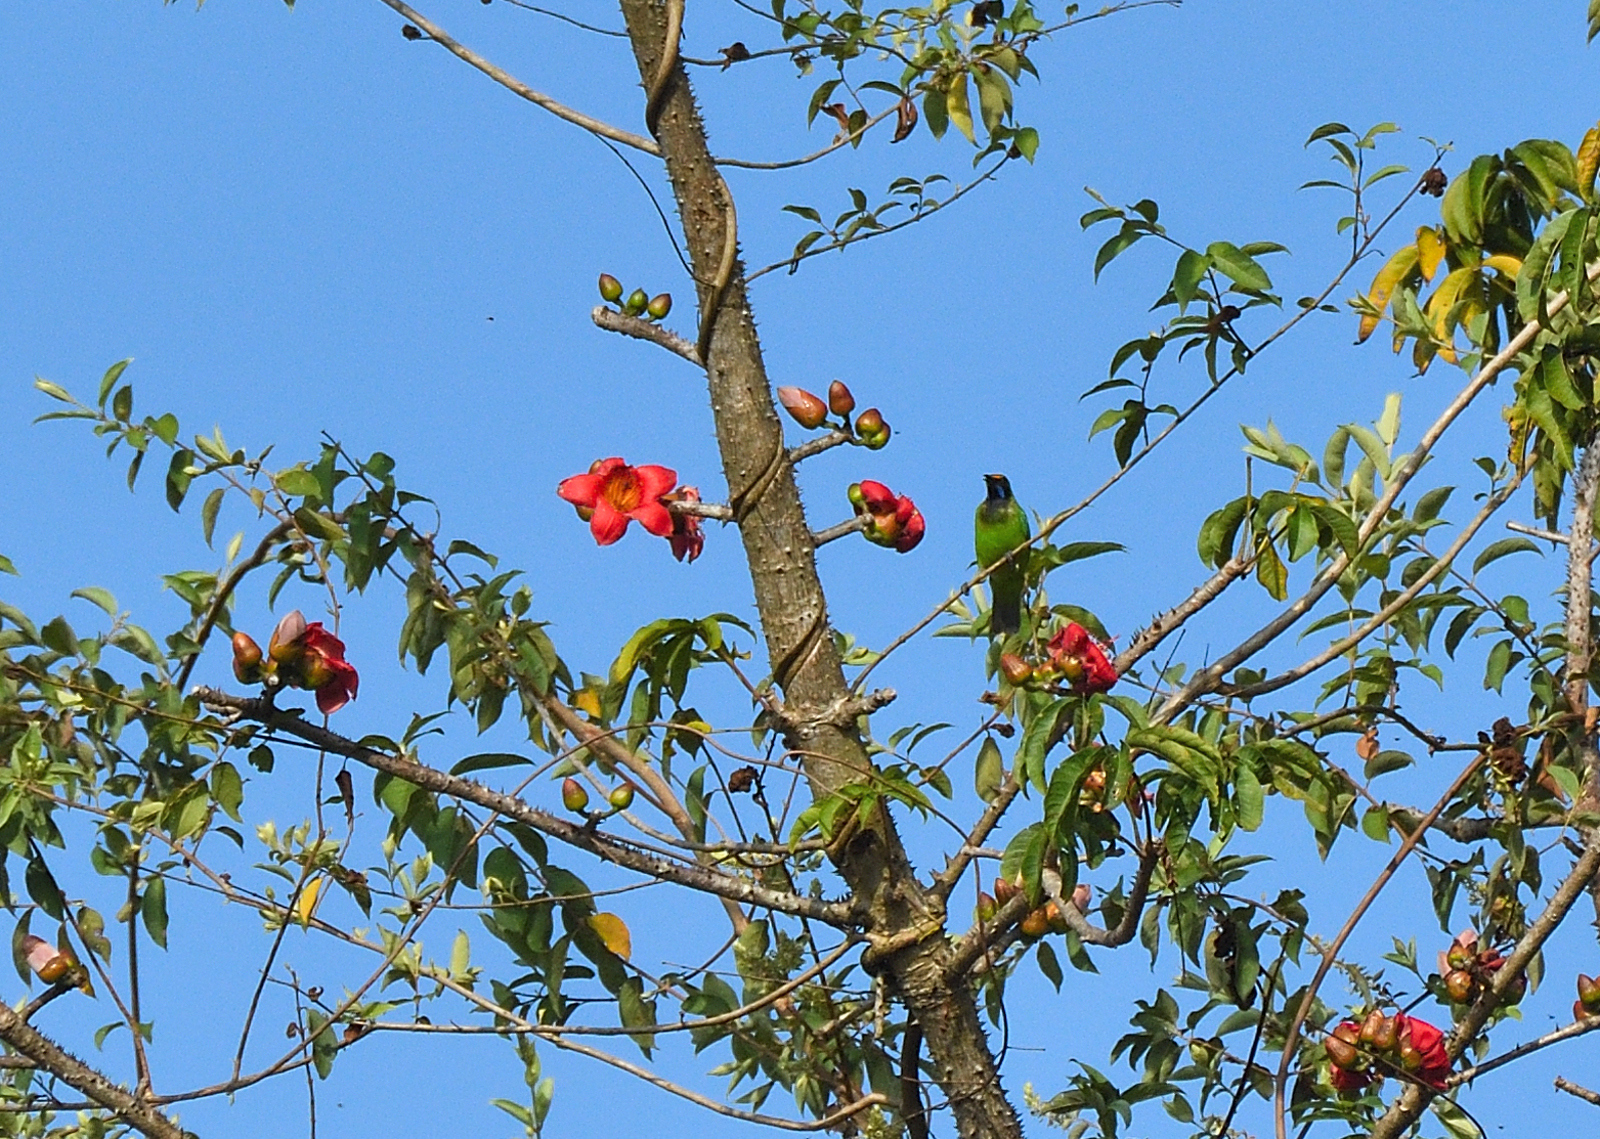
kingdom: Animalia
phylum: Chordata
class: Aves
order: Passeriformes
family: Chloropseidae
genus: Chloropsis
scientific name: Chloropsis aurifrons
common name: Golden-fronted leafbird
